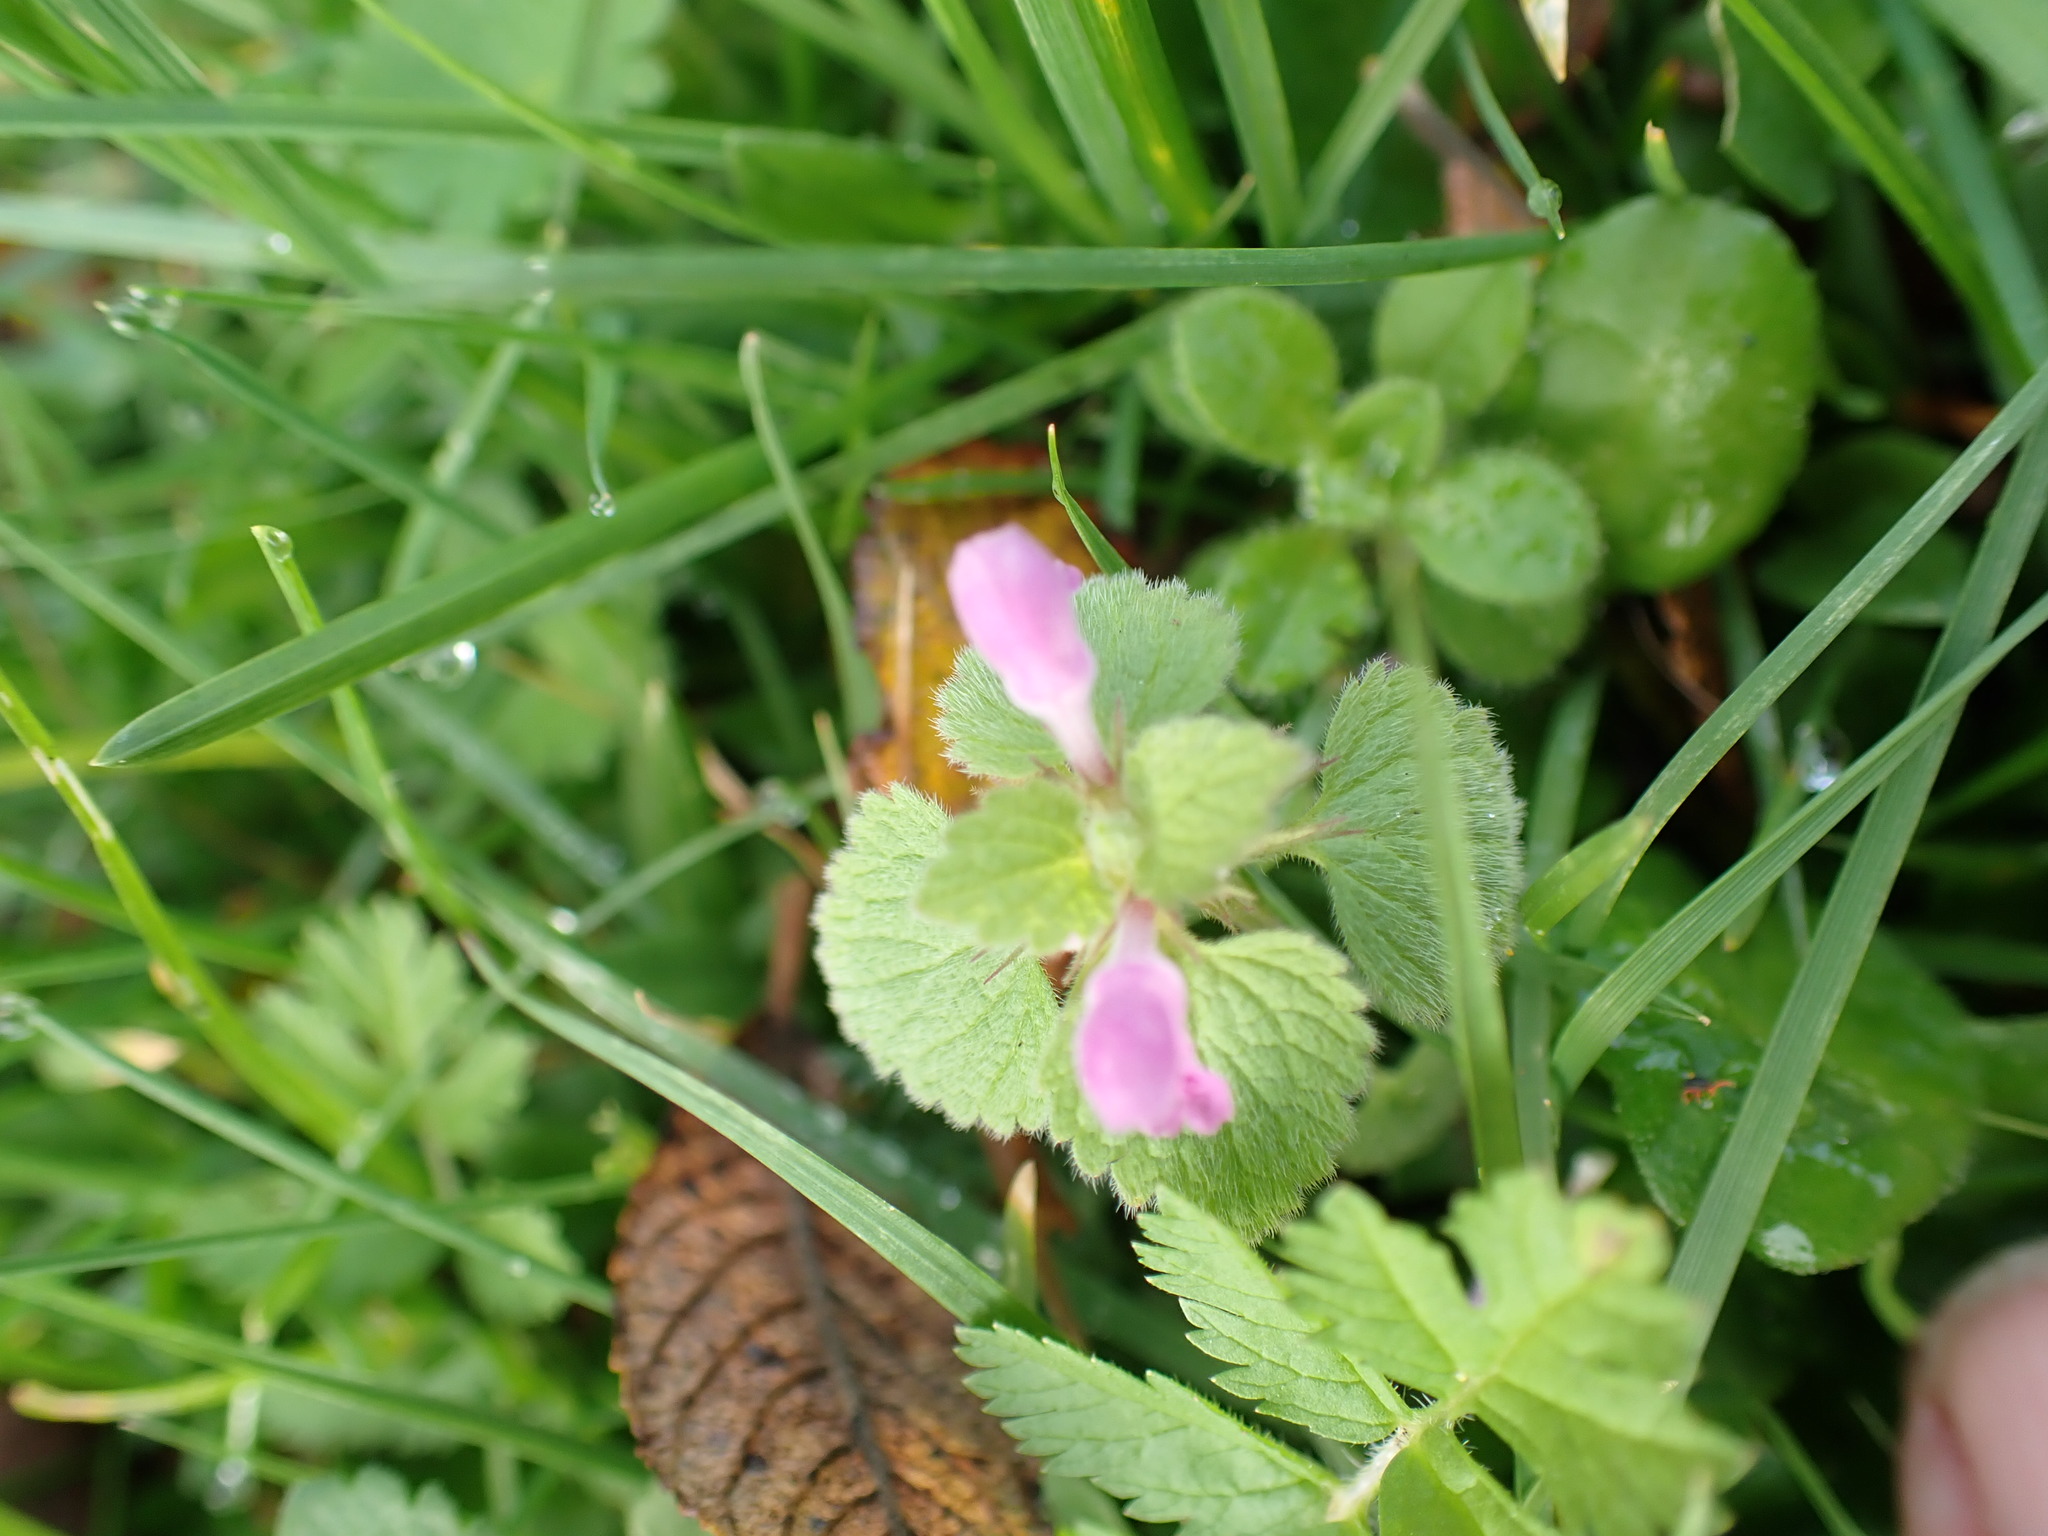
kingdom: Plantae
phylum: Tracheophyta
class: Magnoliopsida
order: Lamiales
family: Lamiaceae
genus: Lamium
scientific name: Lamium purpureum
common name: Red dead-nettle
